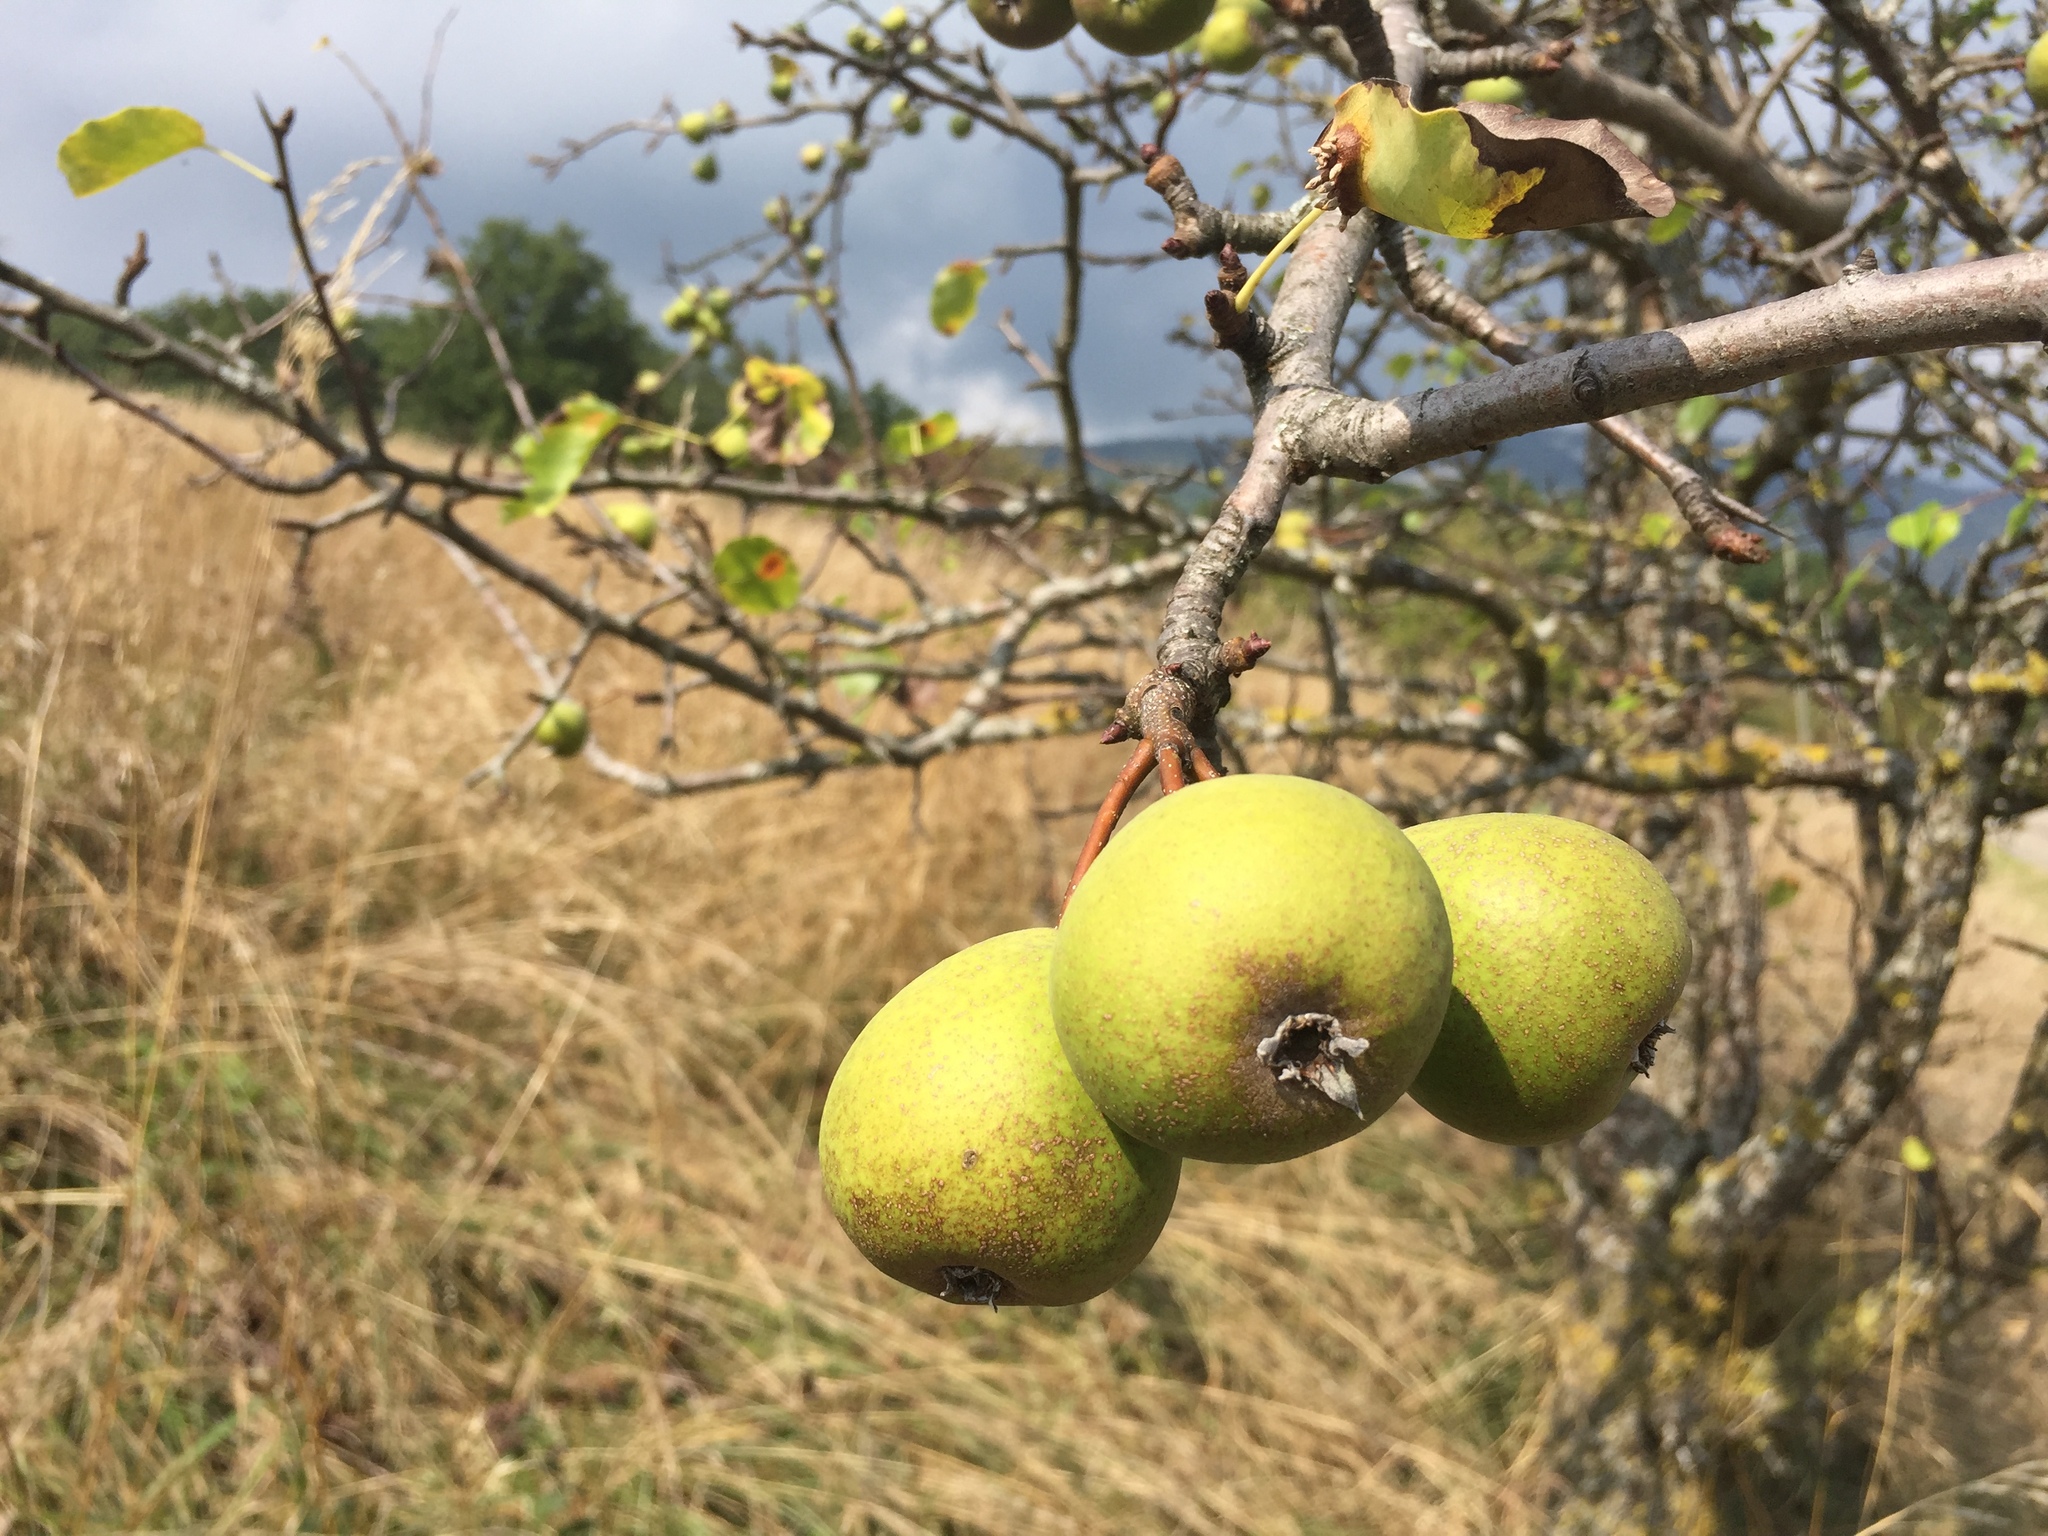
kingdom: Plantae
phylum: Tracheophyta
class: Magnoliopsida
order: Rosales
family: Rosaceae
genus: Pyrus
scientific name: Pyrus communis
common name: Pear
